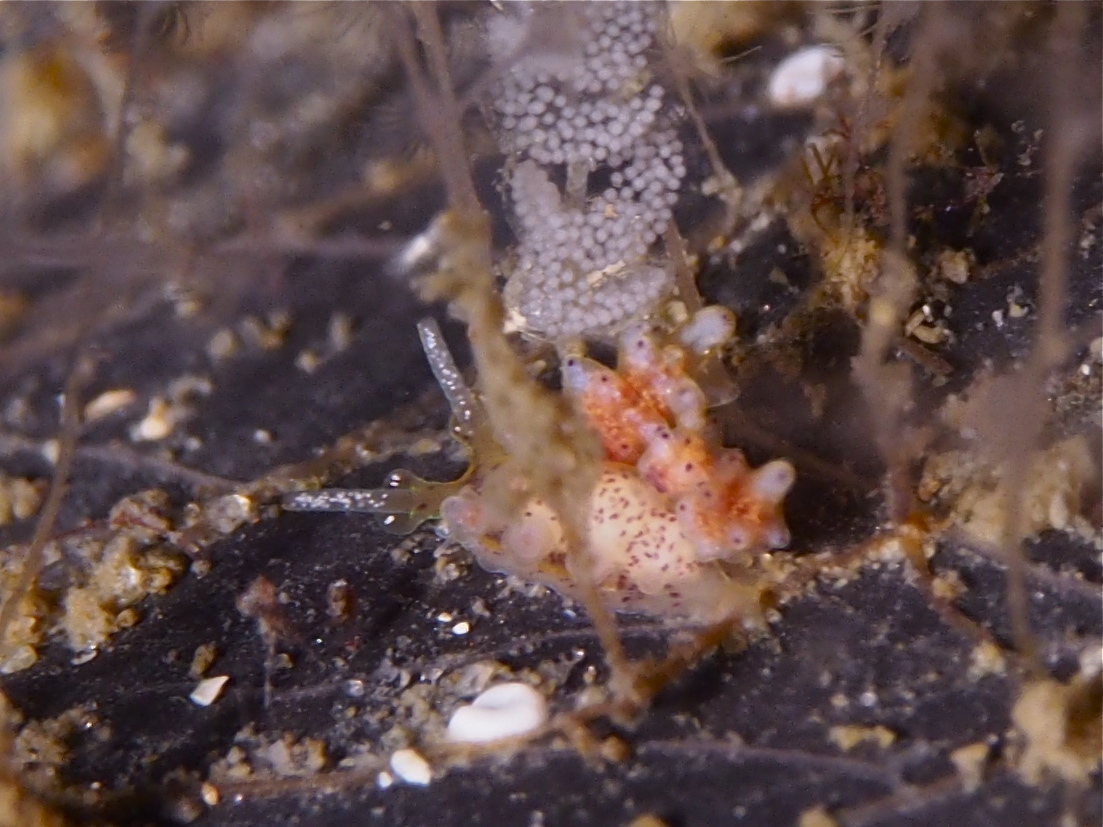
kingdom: Animalia
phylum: Mollusca
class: Gastropoda
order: Nudibranchia
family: Dotidae
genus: Doto
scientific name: Doto maculata
